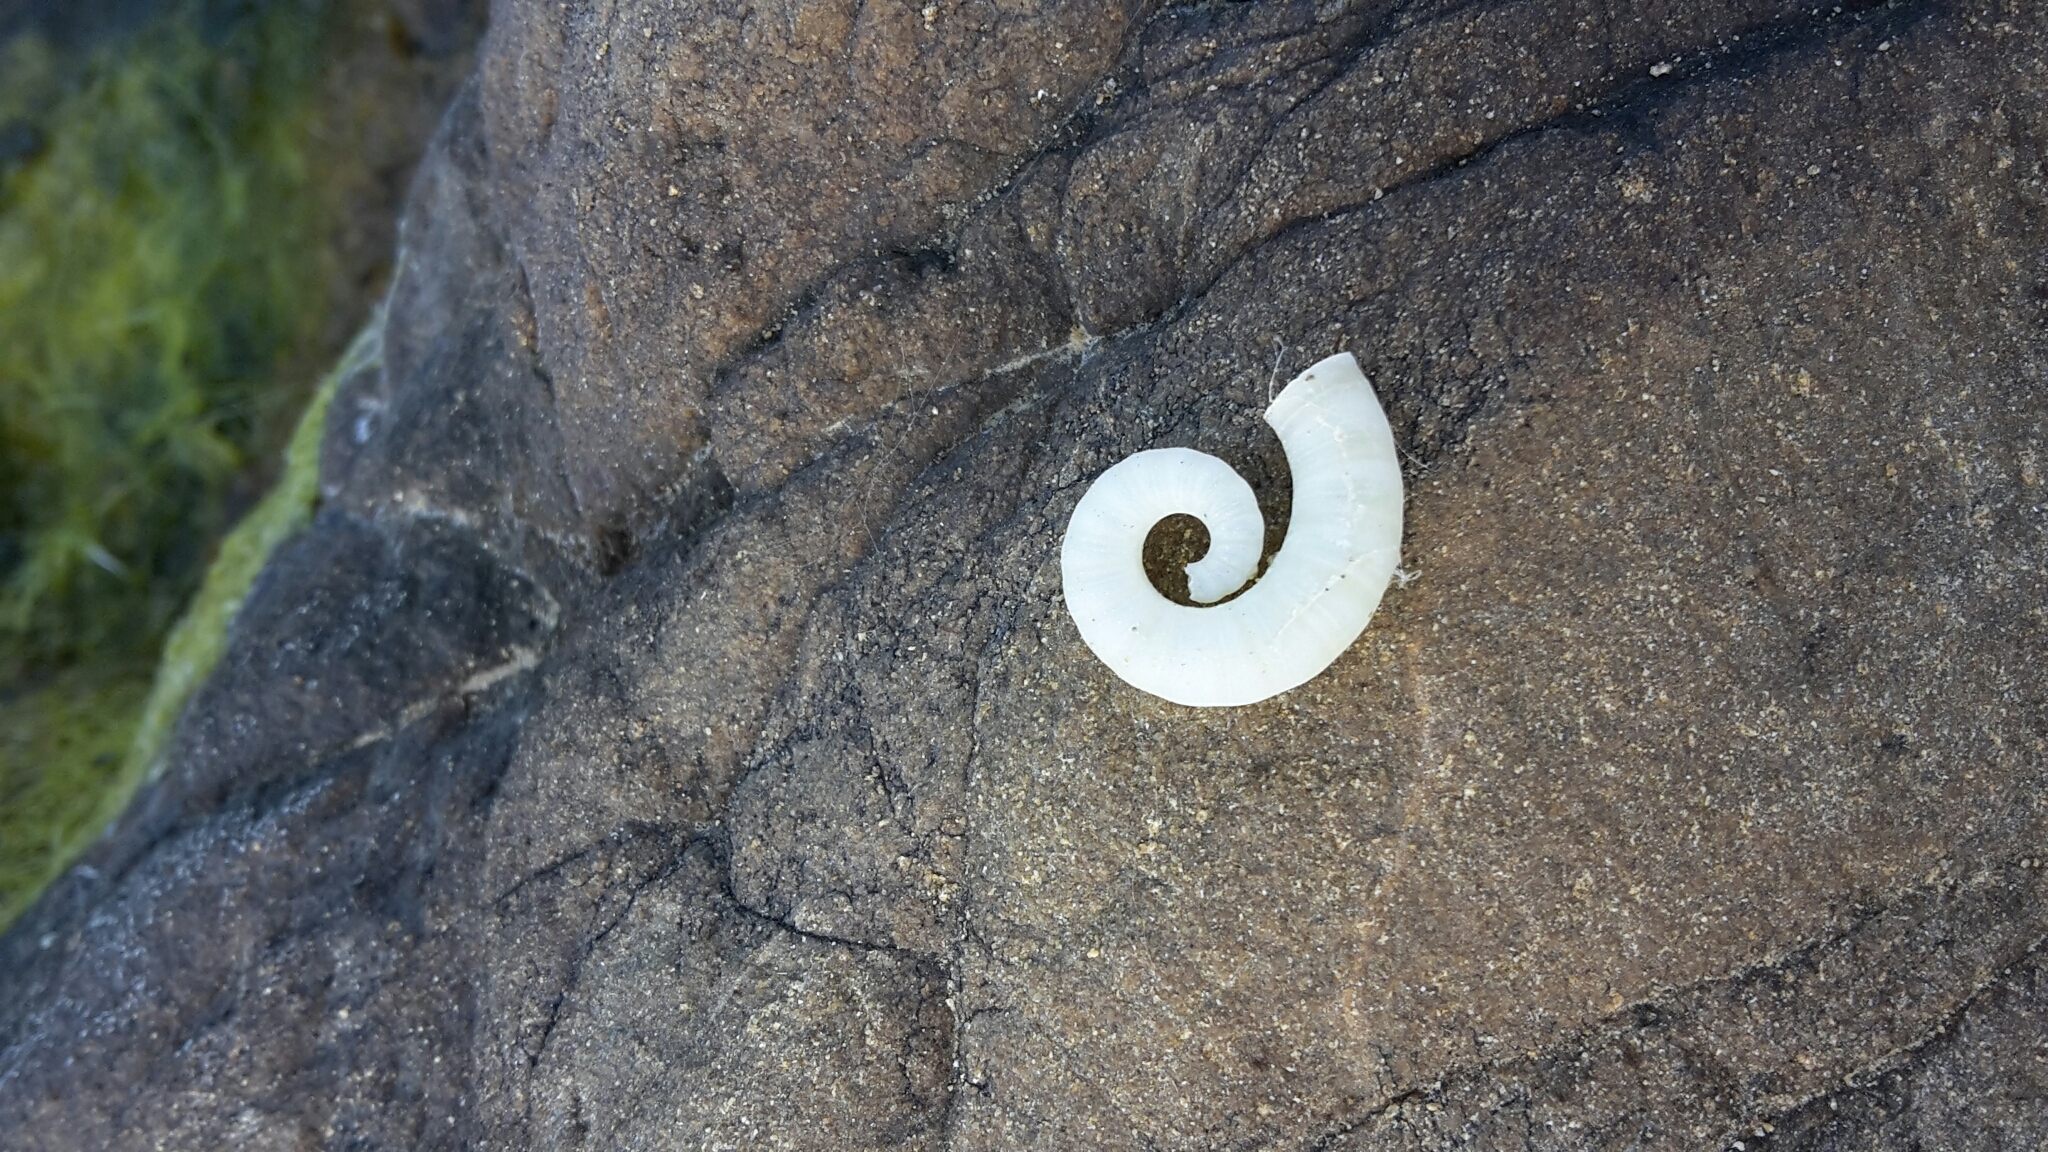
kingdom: Animalia
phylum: Mollusca
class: Cephalopoda
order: Spirulida
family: Spirulidae
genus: Spirula
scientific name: Spirula spirula
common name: Ram's horn squid
